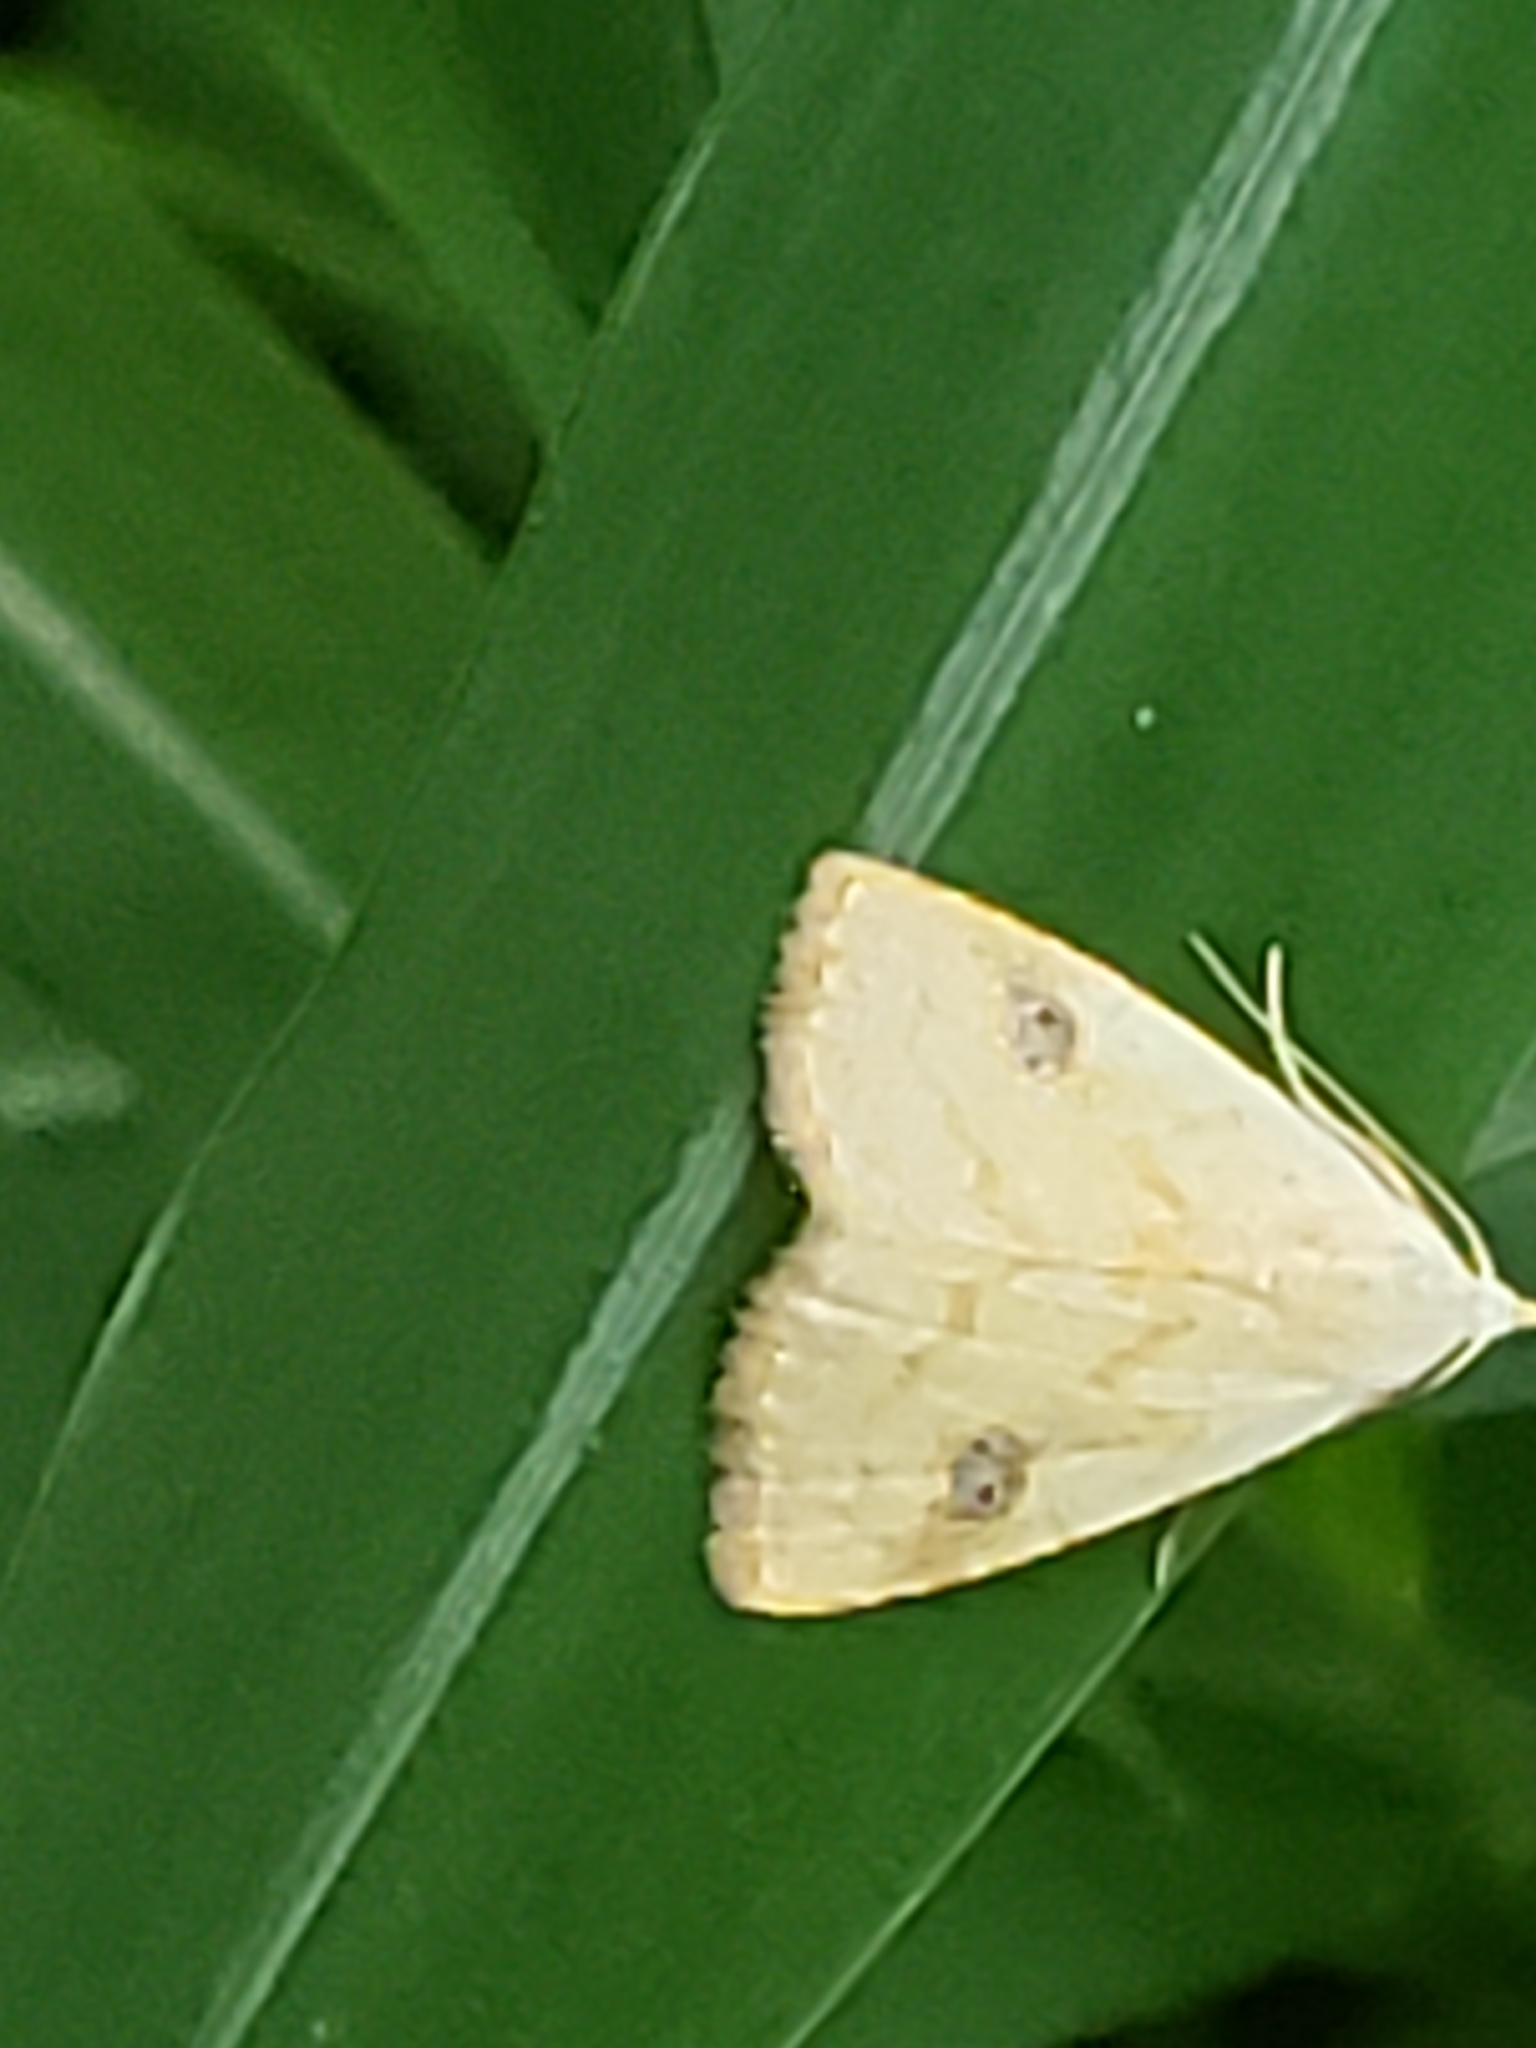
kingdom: Animalia
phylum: Arthropoda
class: Insecta
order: Lepidoptera
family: Erebidae
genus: Rivula
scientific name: Rivula propinqualis
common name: Spotted grass moth
